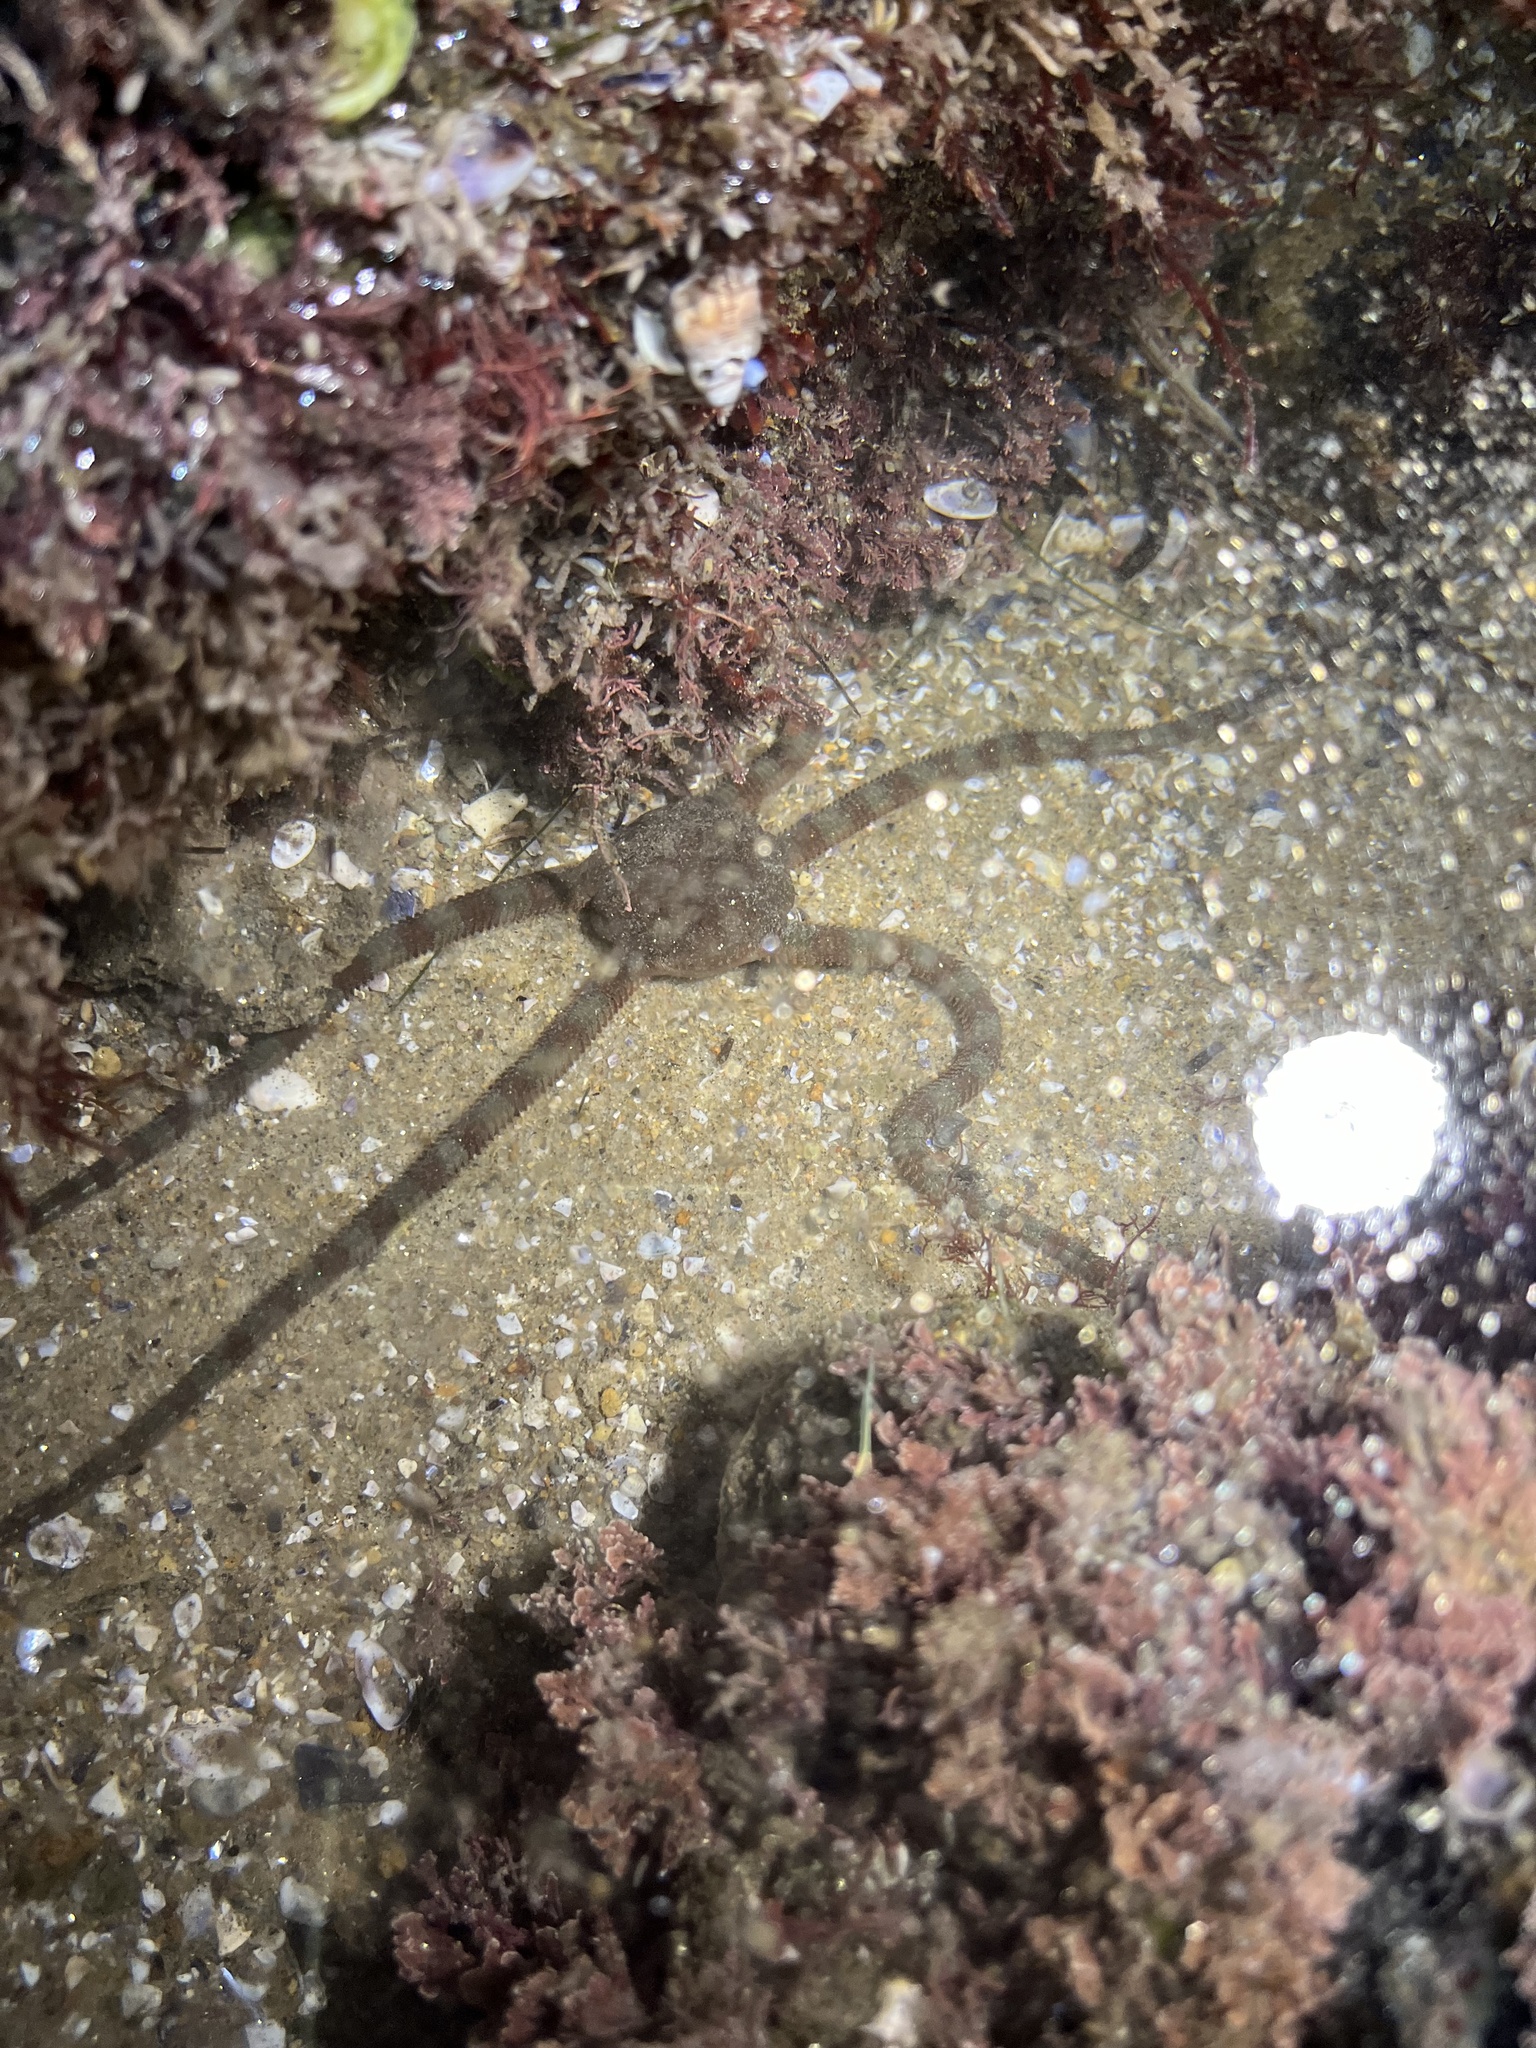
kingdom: Animalia
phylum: Echinodermata
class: Ophiuroidea
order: Ophiacanthida
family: Ophiodermatidae
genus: Ophioderma
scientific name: Ophioderma panamense
